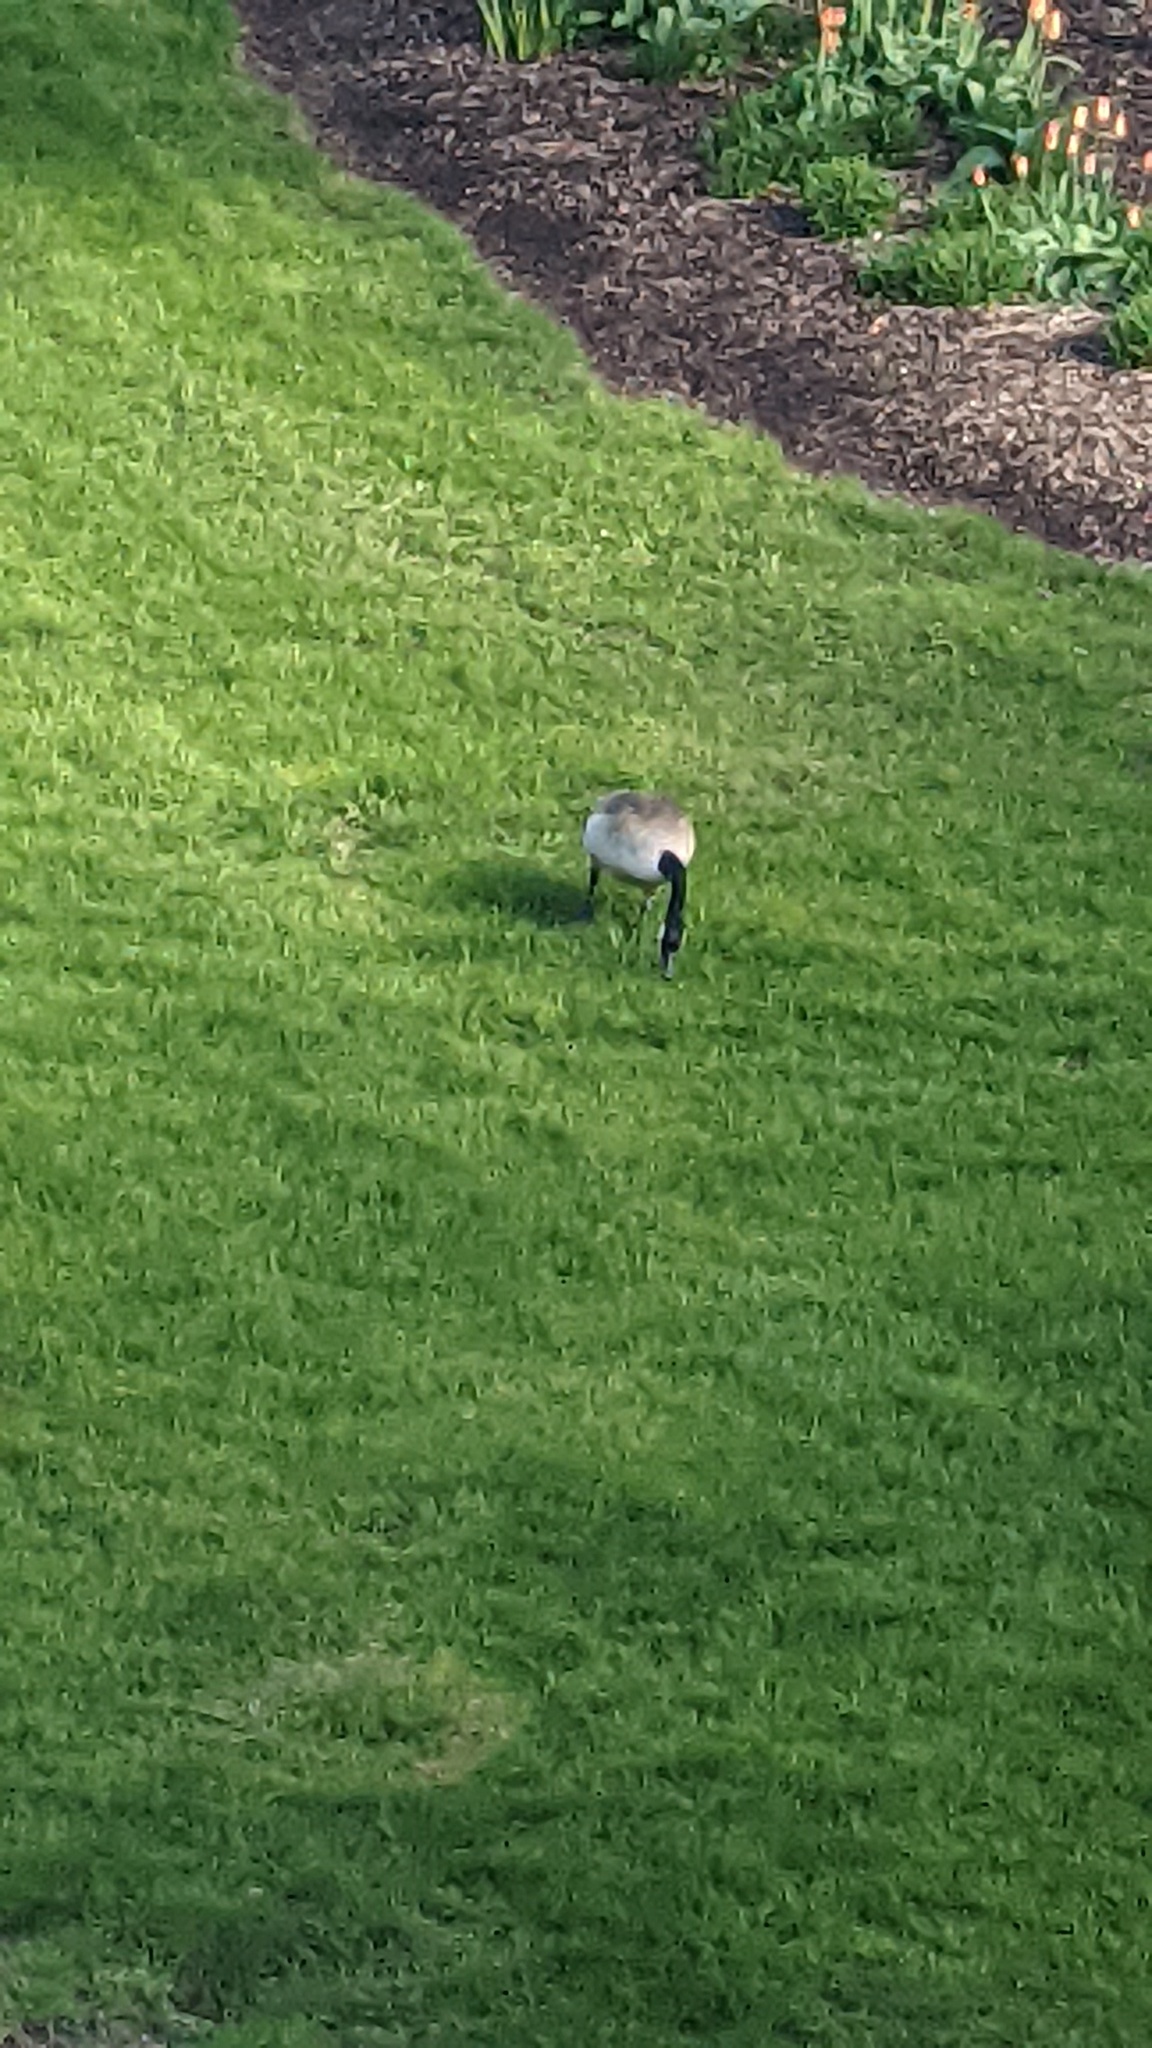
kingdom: Animalia
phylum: Chordata
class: Aves
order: Anseriformes
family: Anatidae
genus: Branta
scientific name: Branta canadensis
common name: Canada goose
